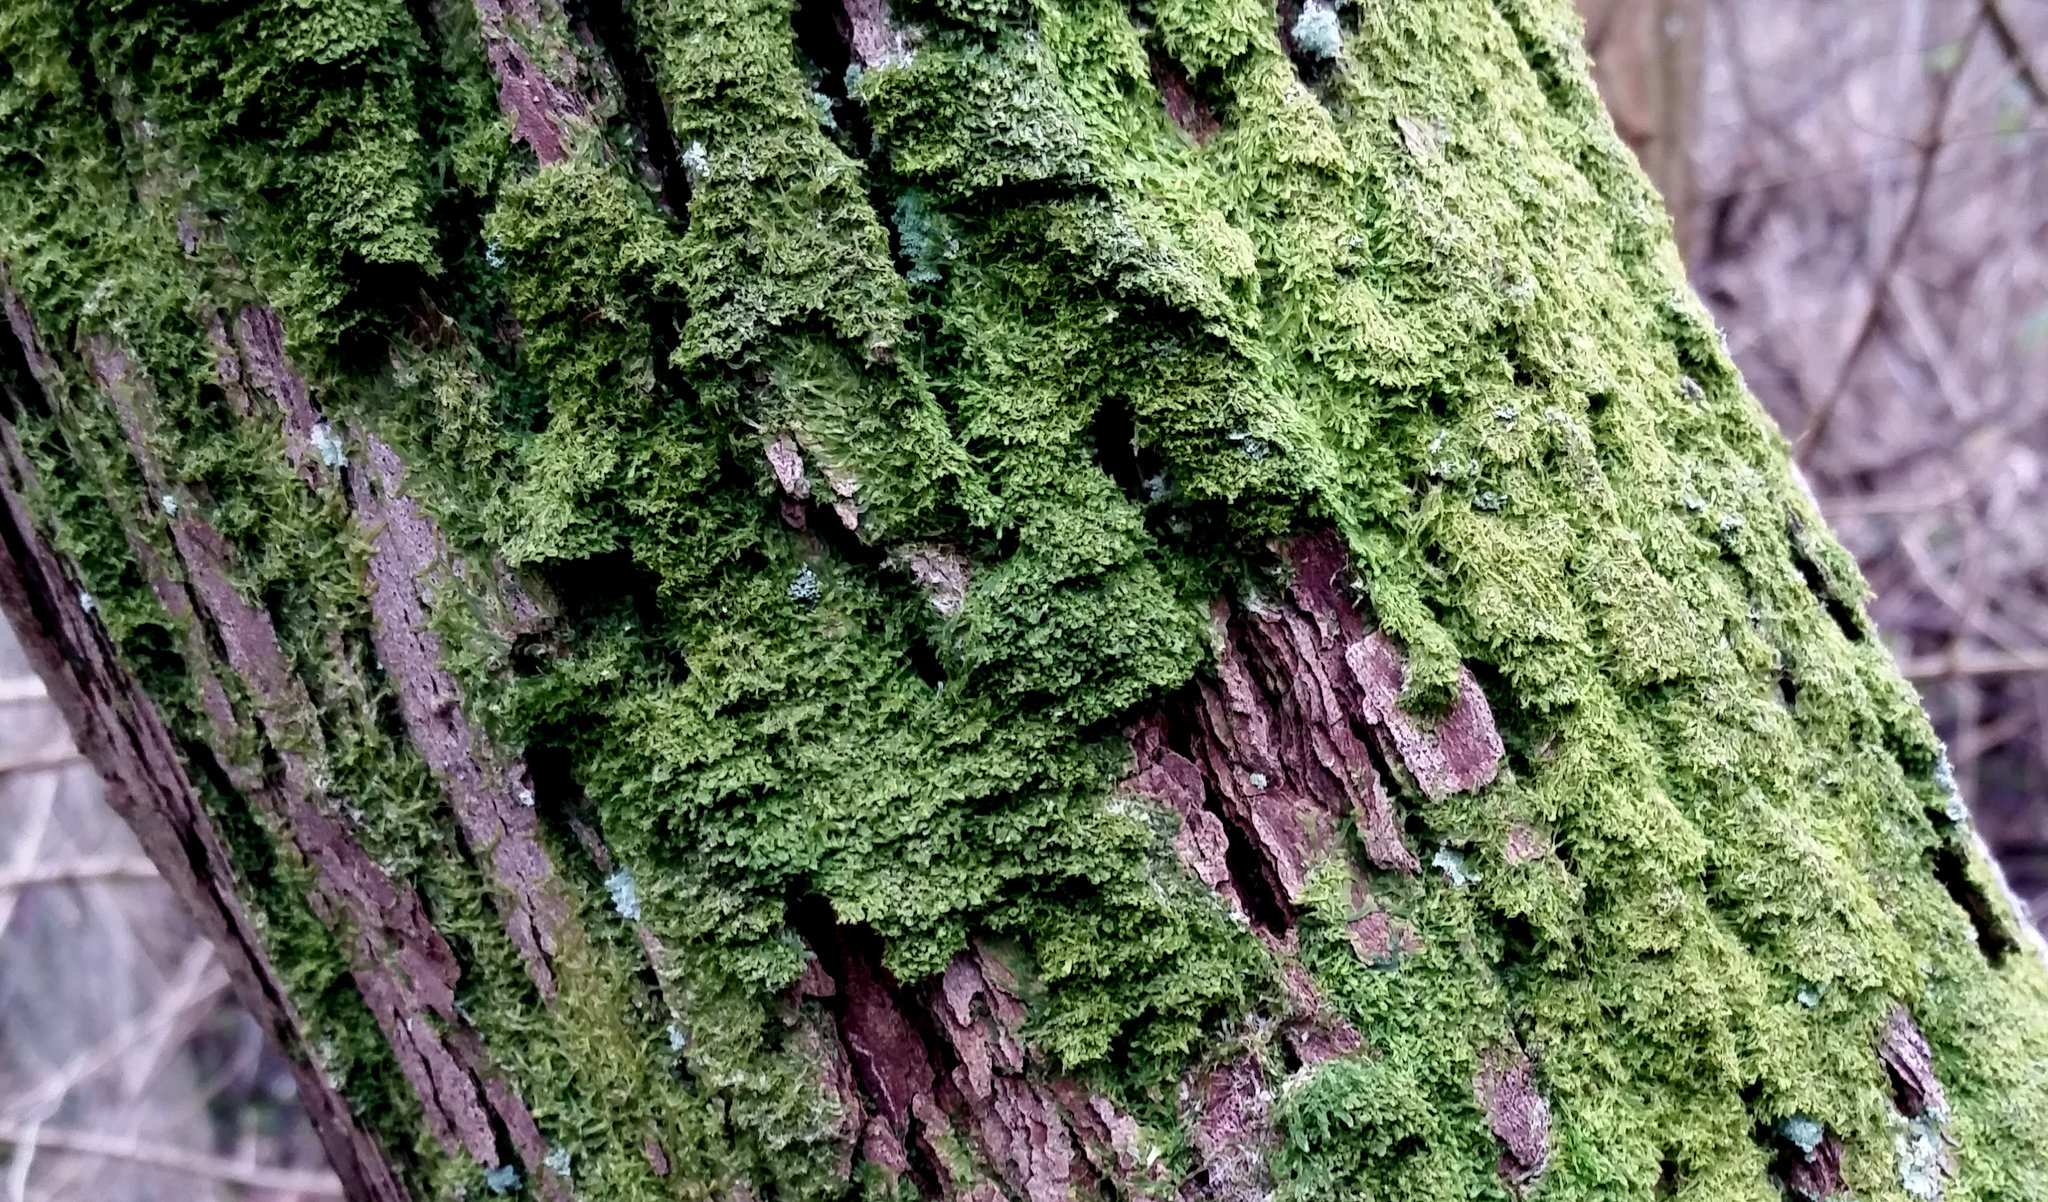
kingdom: Plantae
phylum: Marchantiophyta
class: Jungermanniopsida
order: Metzgeriales
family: Metzgeriaceae
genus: Metzgeria
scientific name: Metzgeria furcata
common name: Forked veilwort
